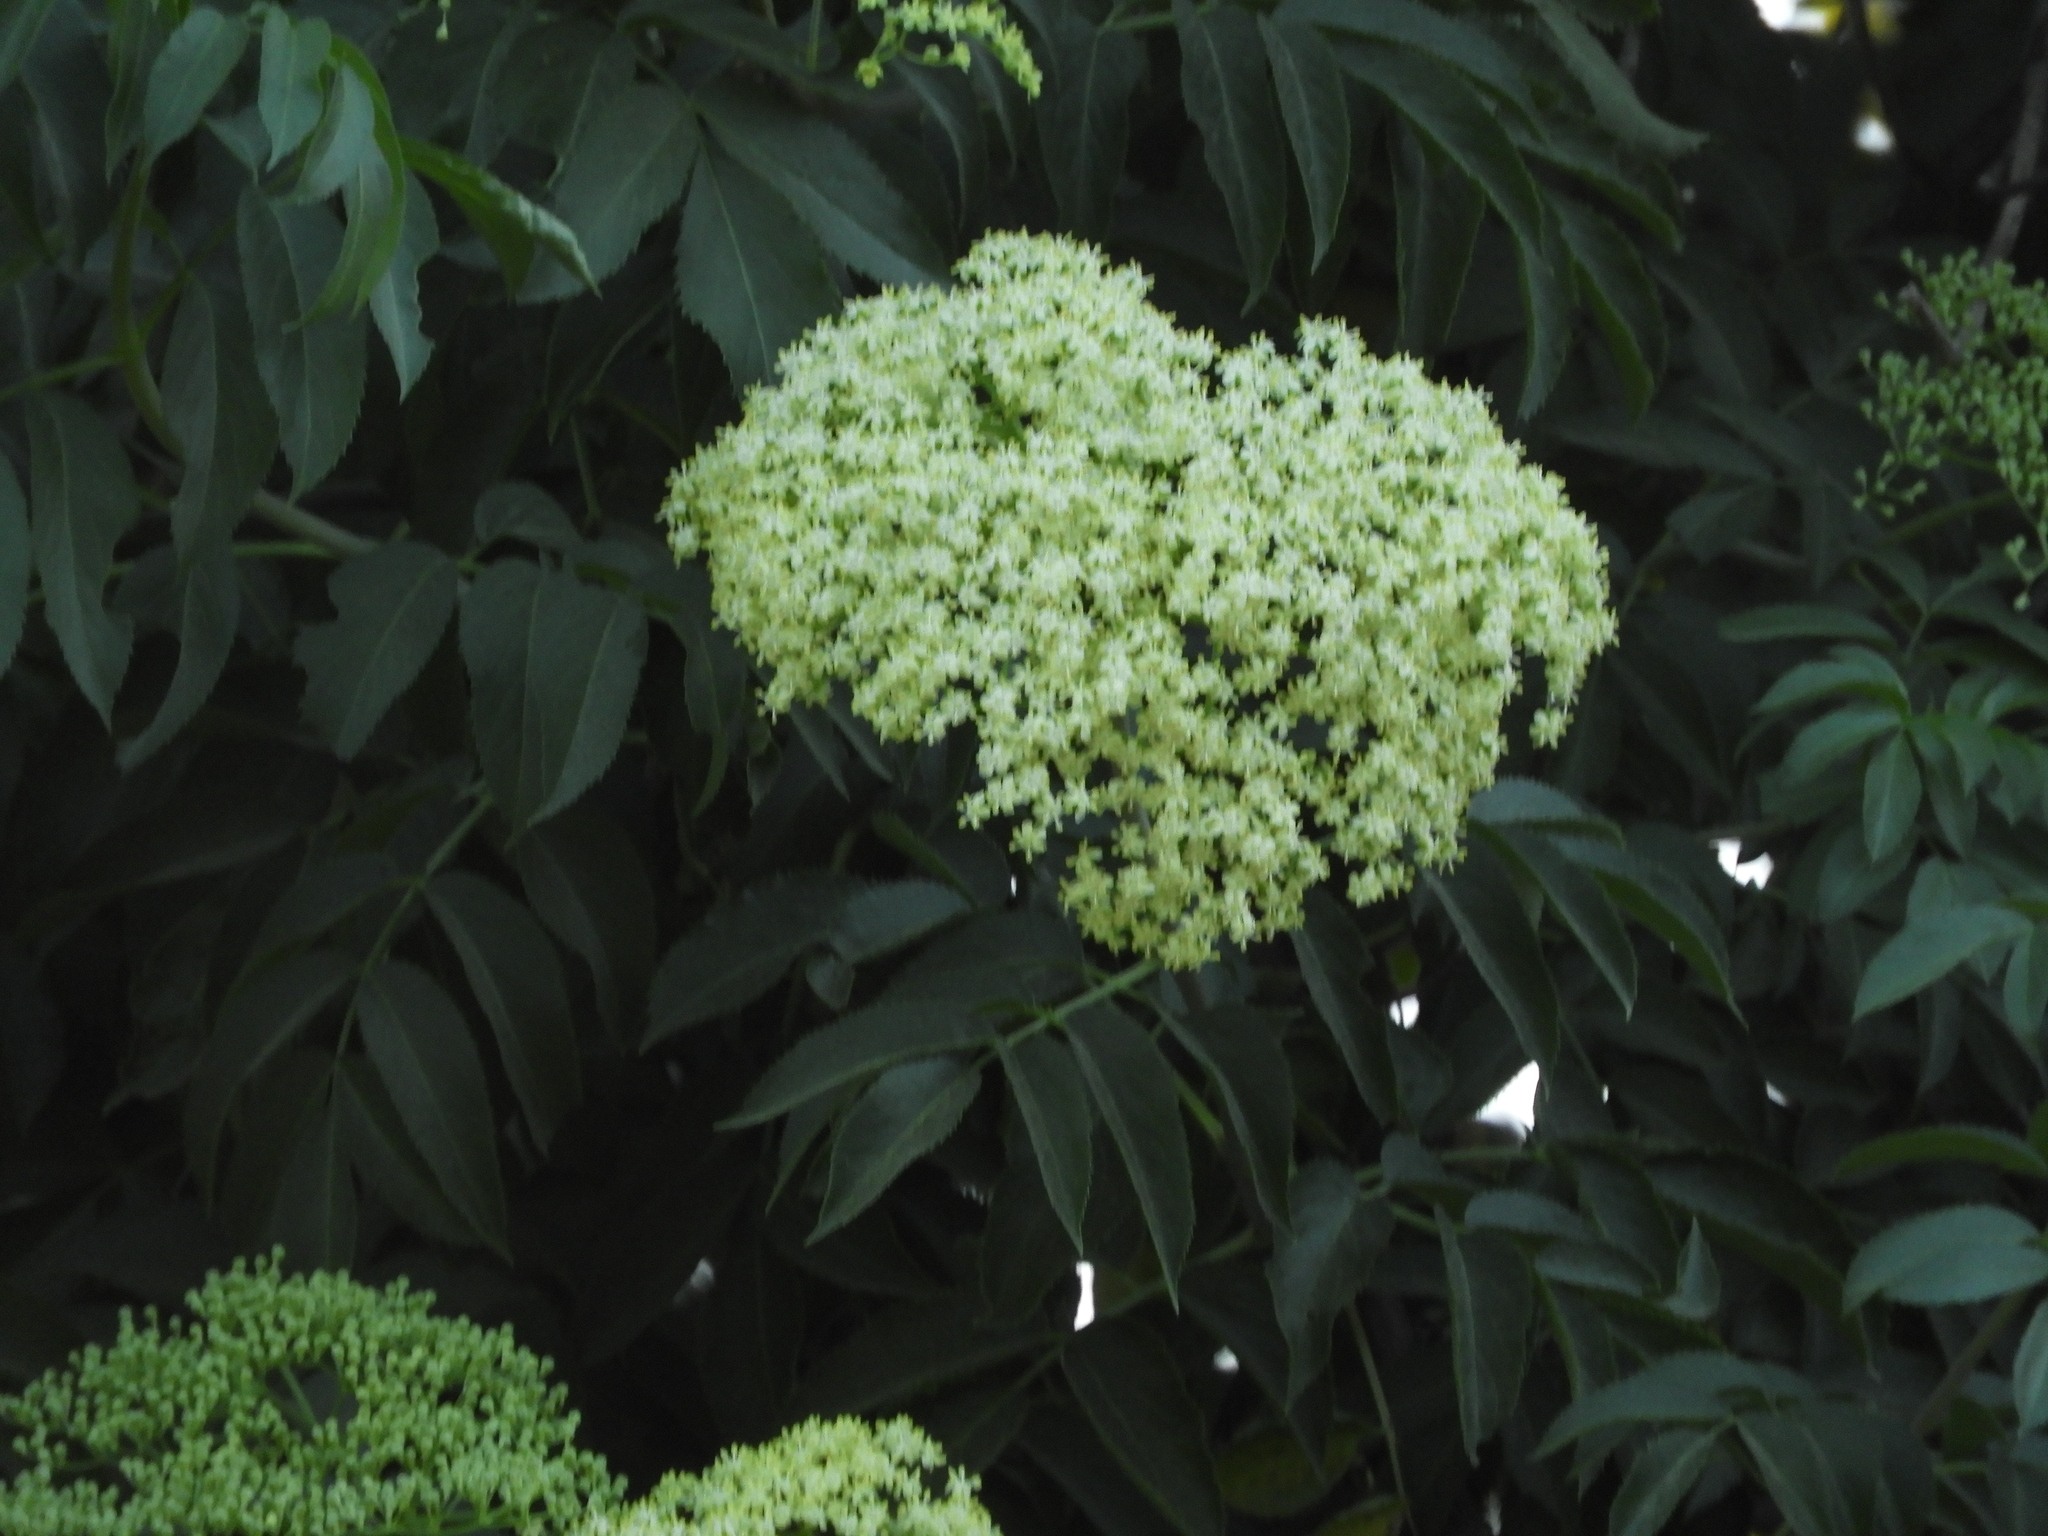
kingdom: Plantae
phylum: Tracheophyta
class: Magnoliopsida
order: Dipsacales
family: Viburnaceae
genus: Sambucus
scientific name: Sambucus cerulea
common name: Blue elder
